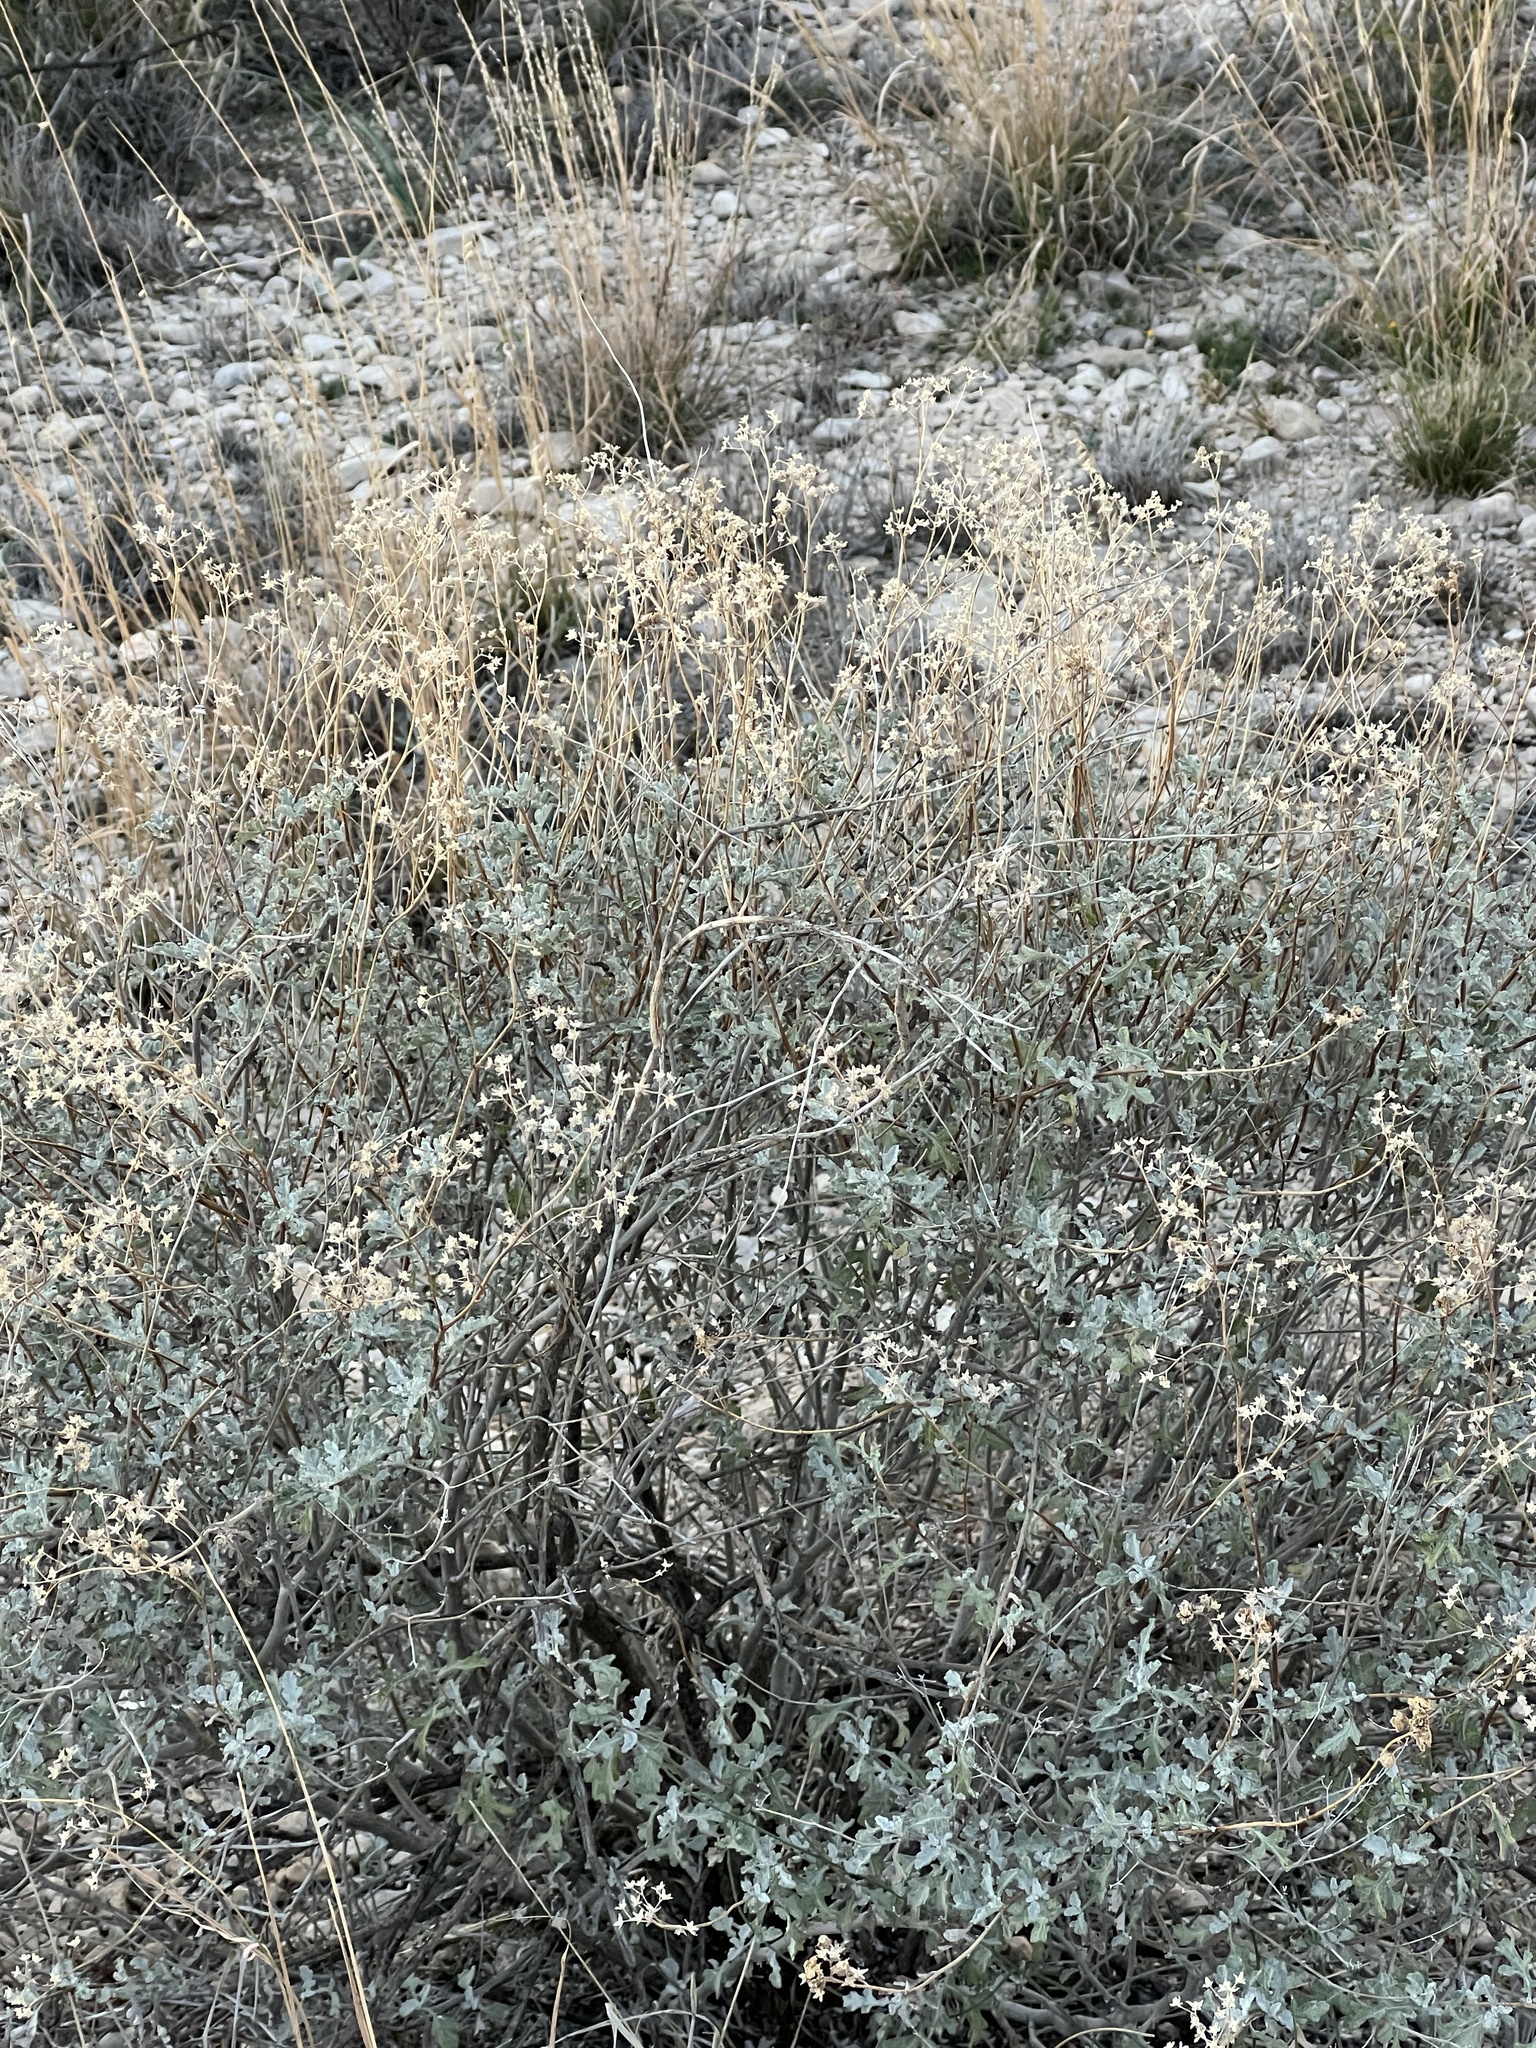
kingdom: Plantae
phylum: Tracheophyta
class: Magnoliopsida
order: Asterales
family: Asteraceae
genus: Parthenium
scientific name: Parthenium incanum
